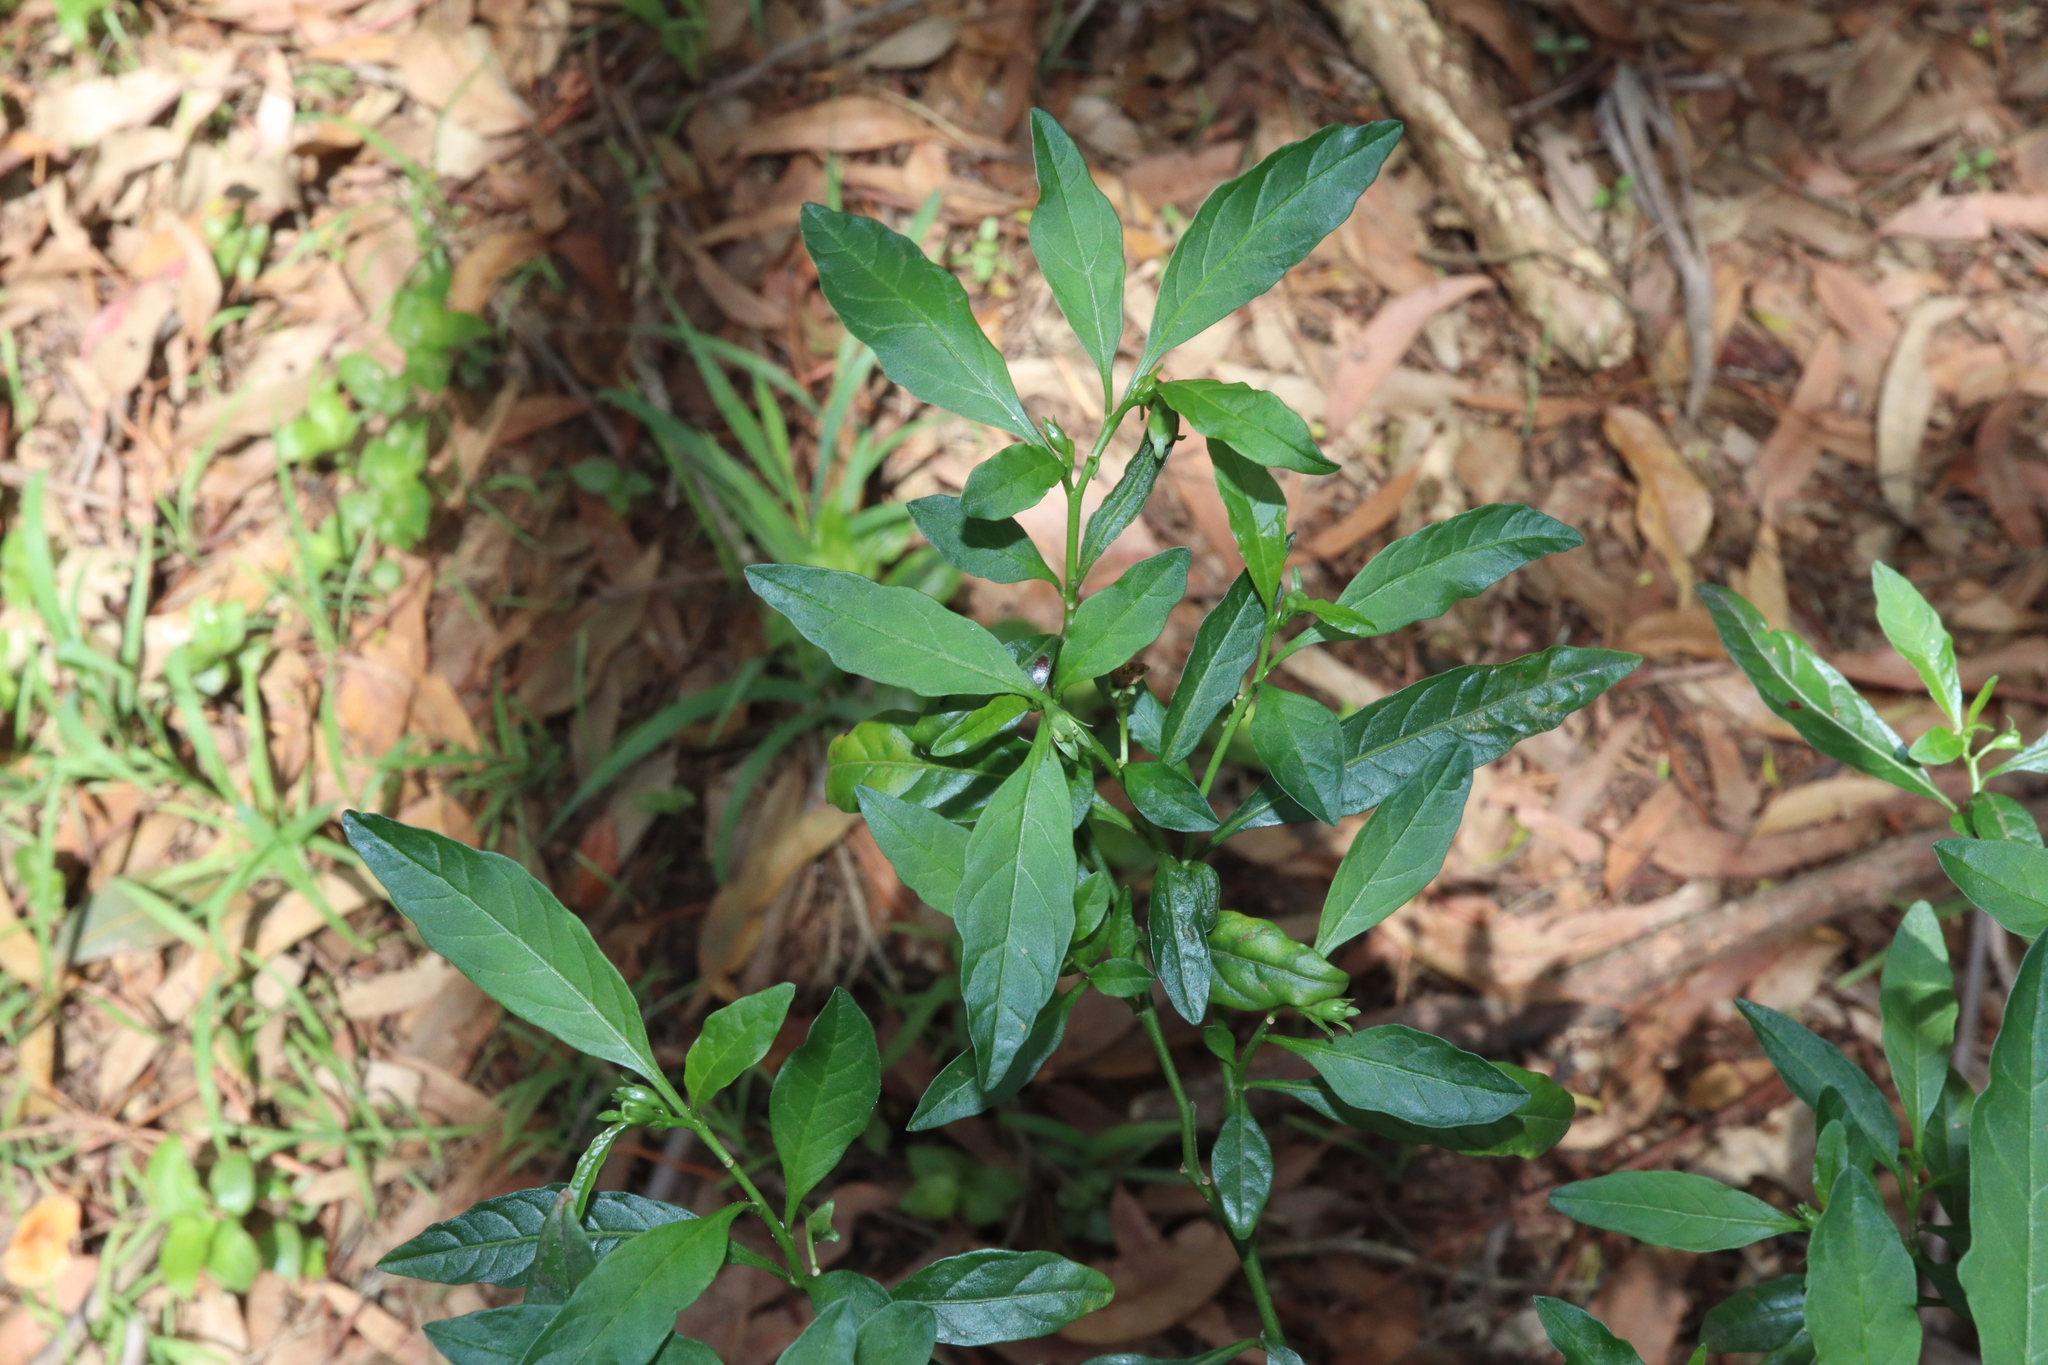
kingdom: Plantae
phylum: Tracheophyta
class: Magnoliopsida
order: Solanales
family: Solanaceae
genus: Solanum
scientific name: Solanum pseudocapsicum
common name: Jerusalem cherry
